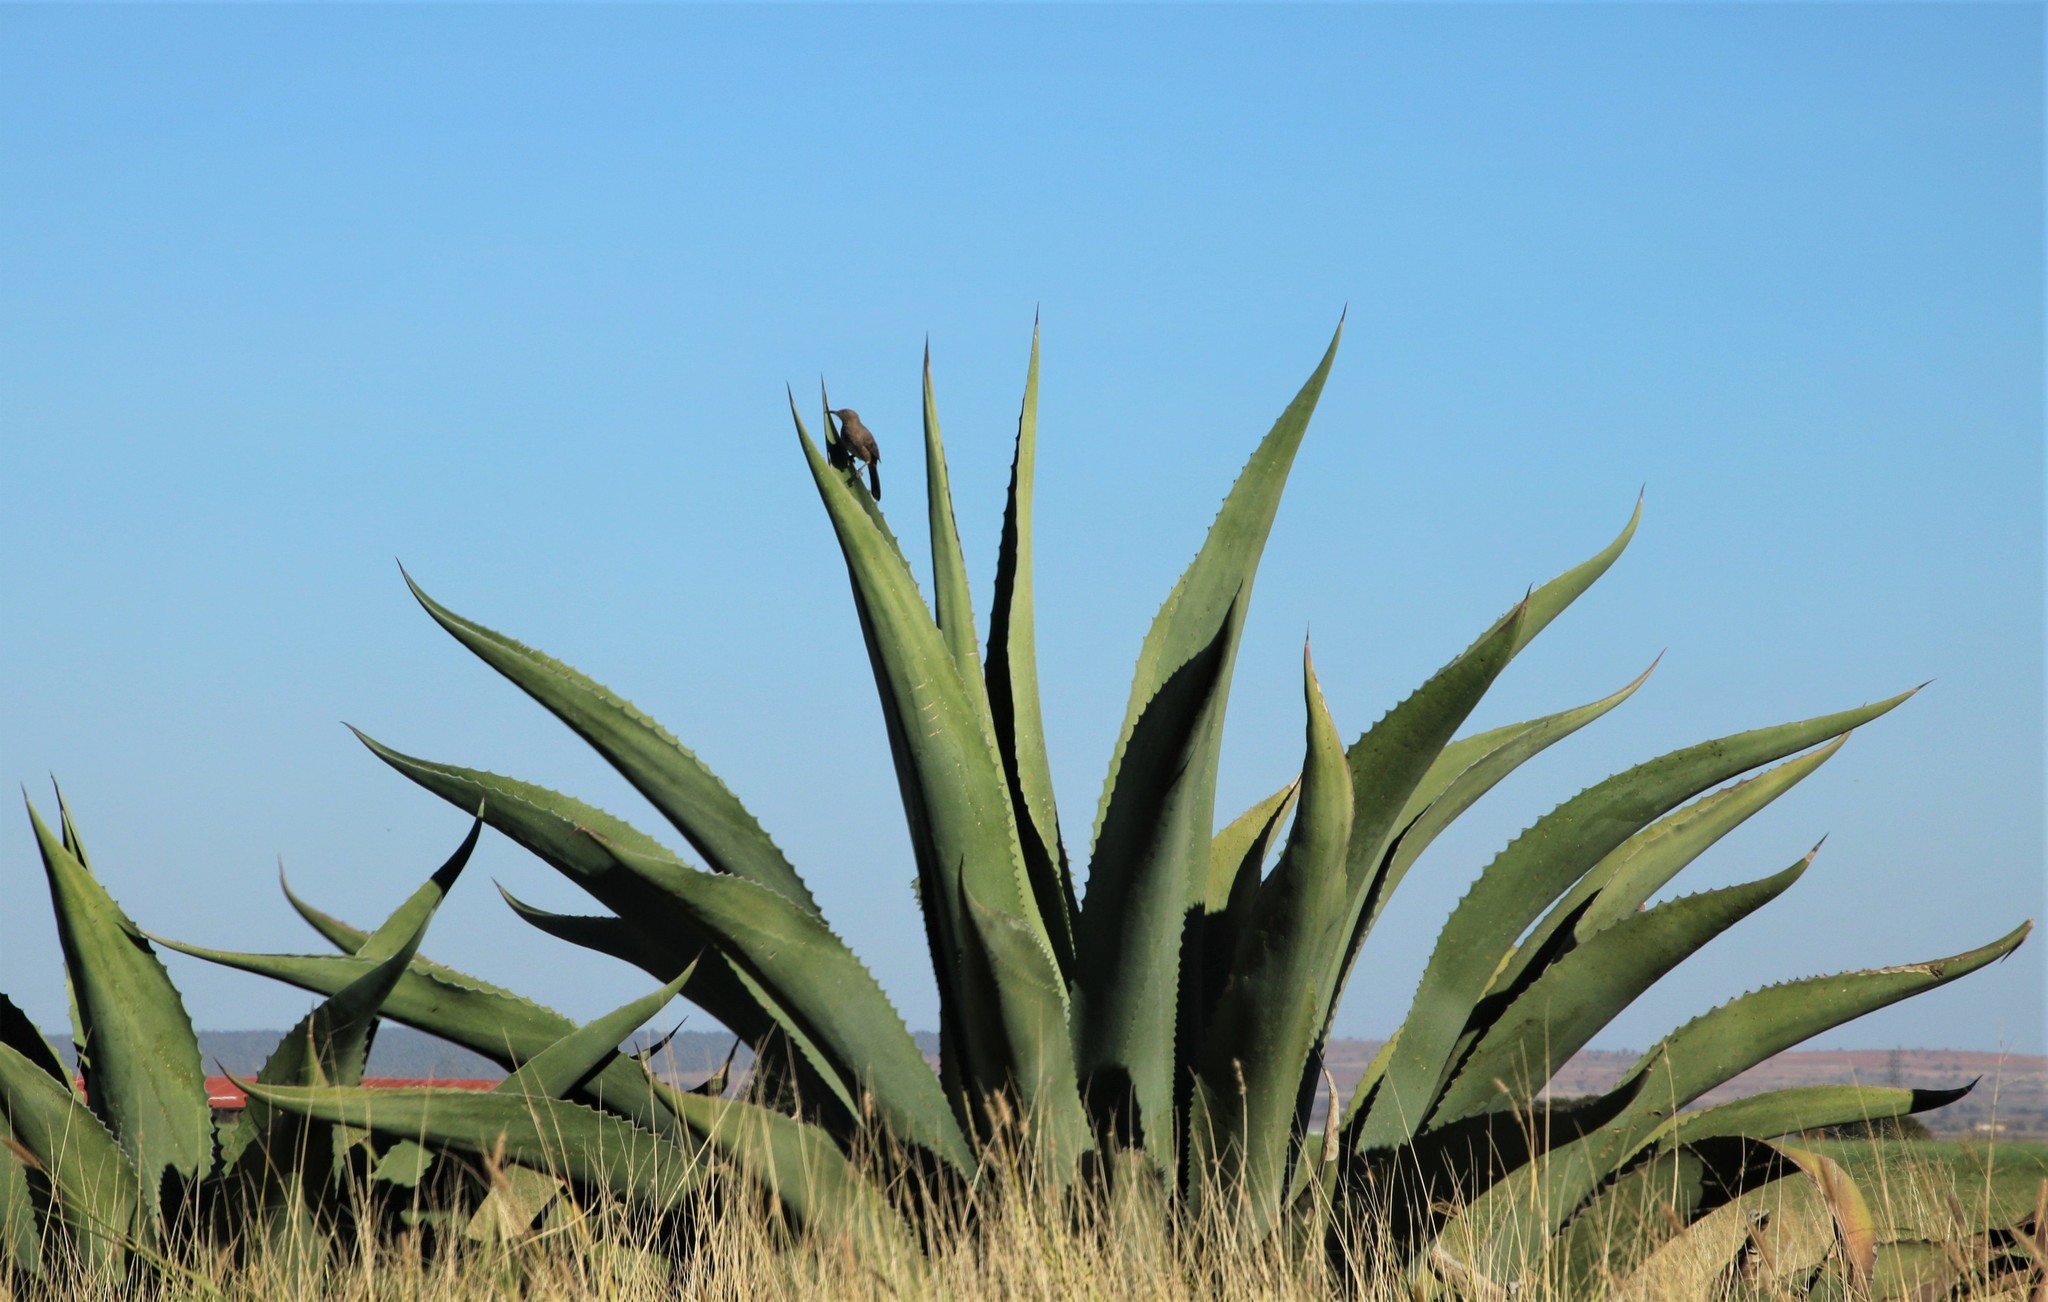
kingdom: Animalia
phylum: Chordata
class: Aves
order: Passeriformes
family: Mimidae
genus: Toxostoma
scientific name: Toxostoma curvirostre
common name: Curve-billed thrasher
